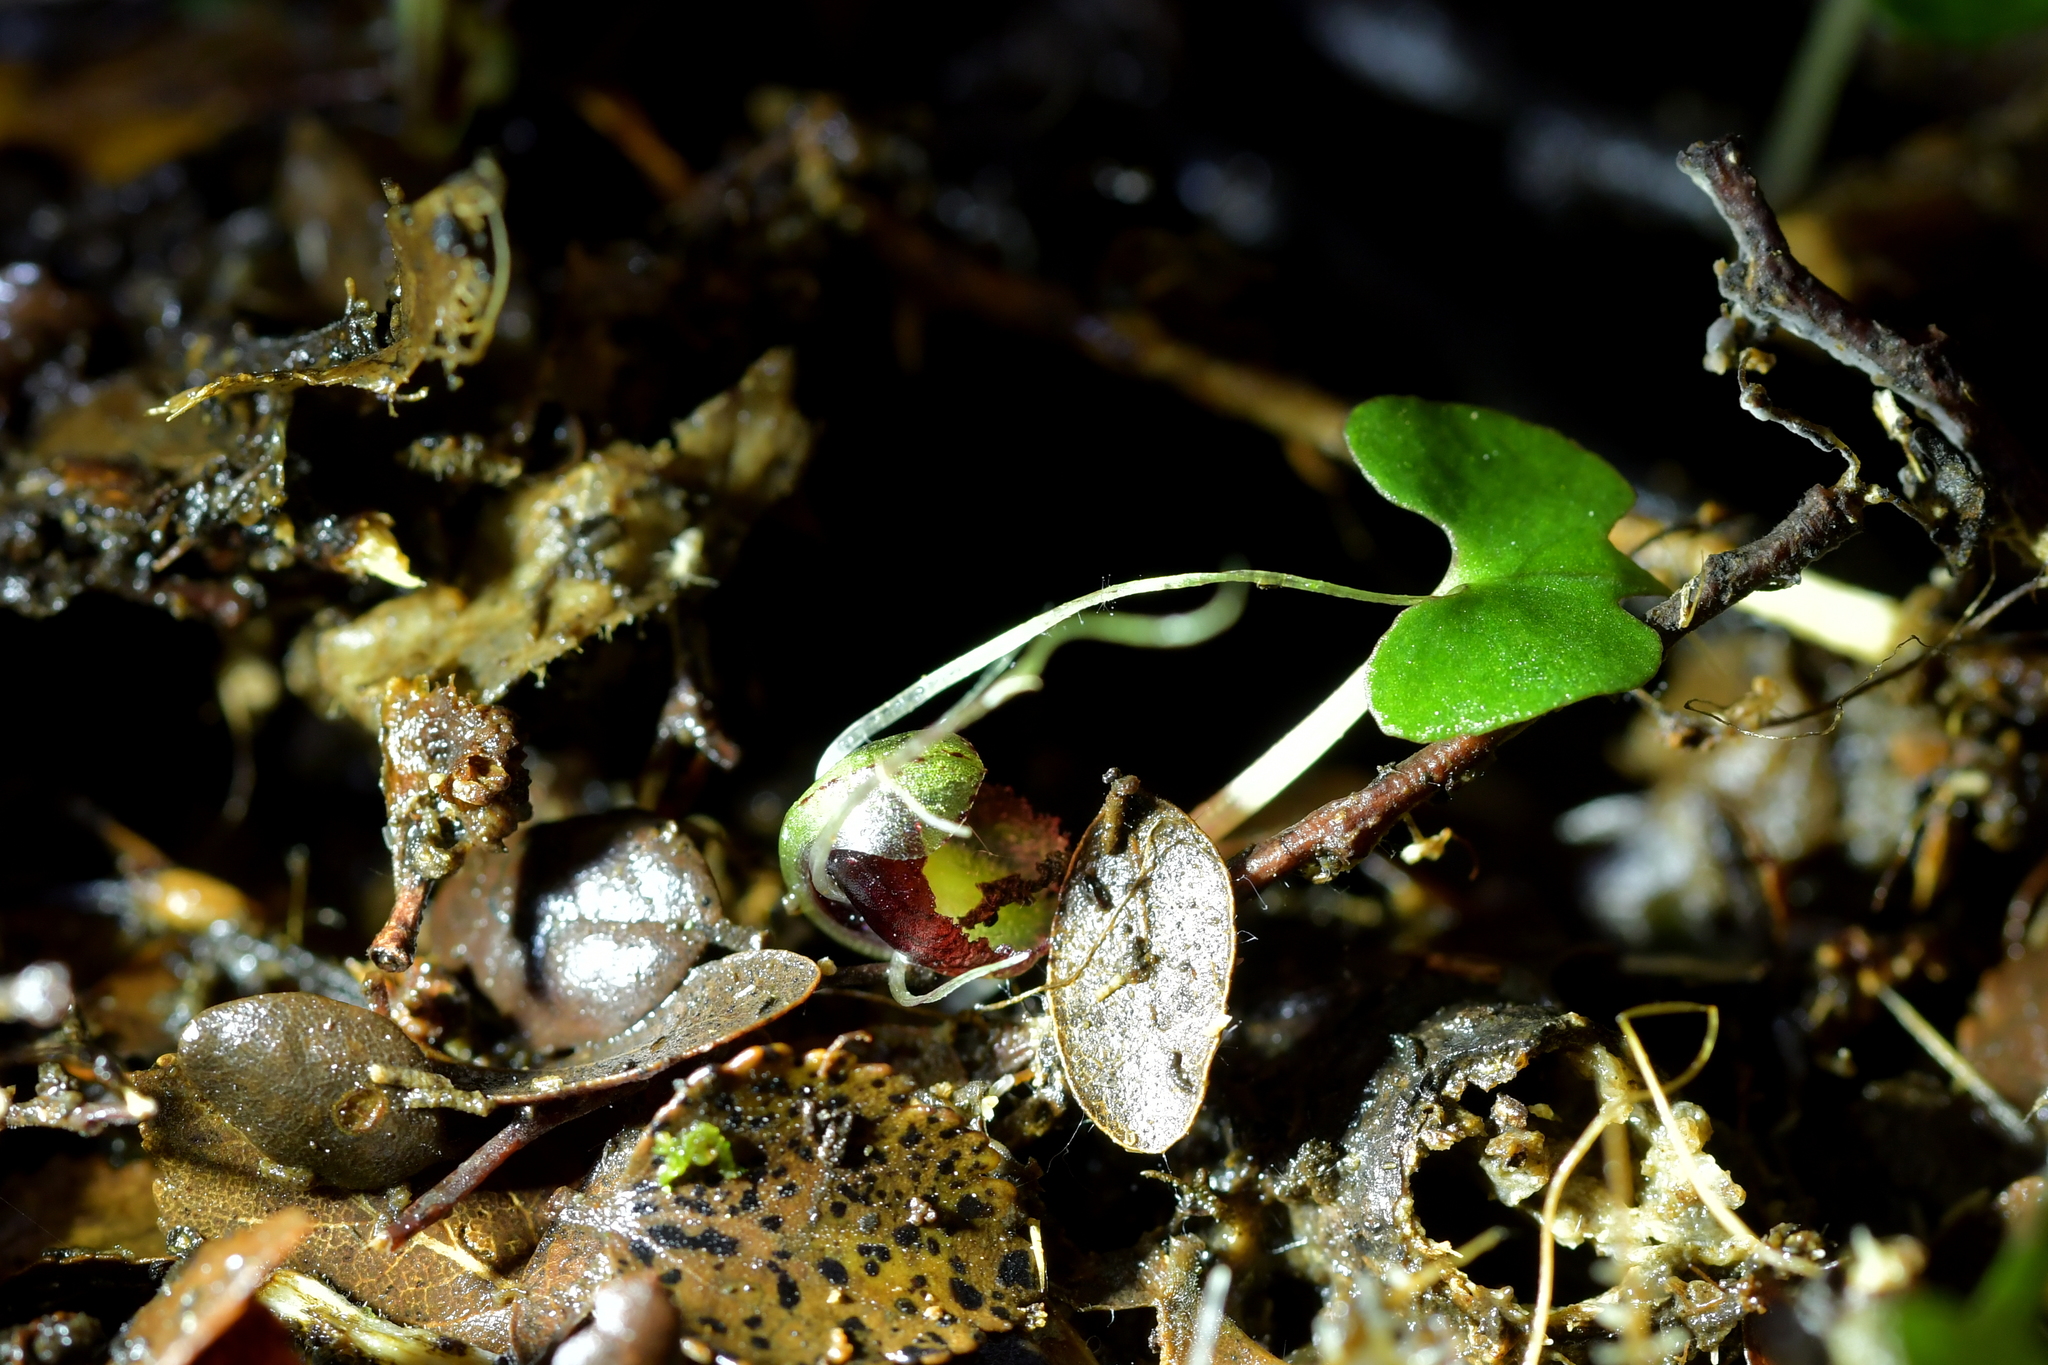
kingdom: Plantae
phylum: Tracheophyta
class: Liliopsida
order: Asparagales
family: Orchidaceae
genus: Corybas
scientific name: Corybas hypogaeus
